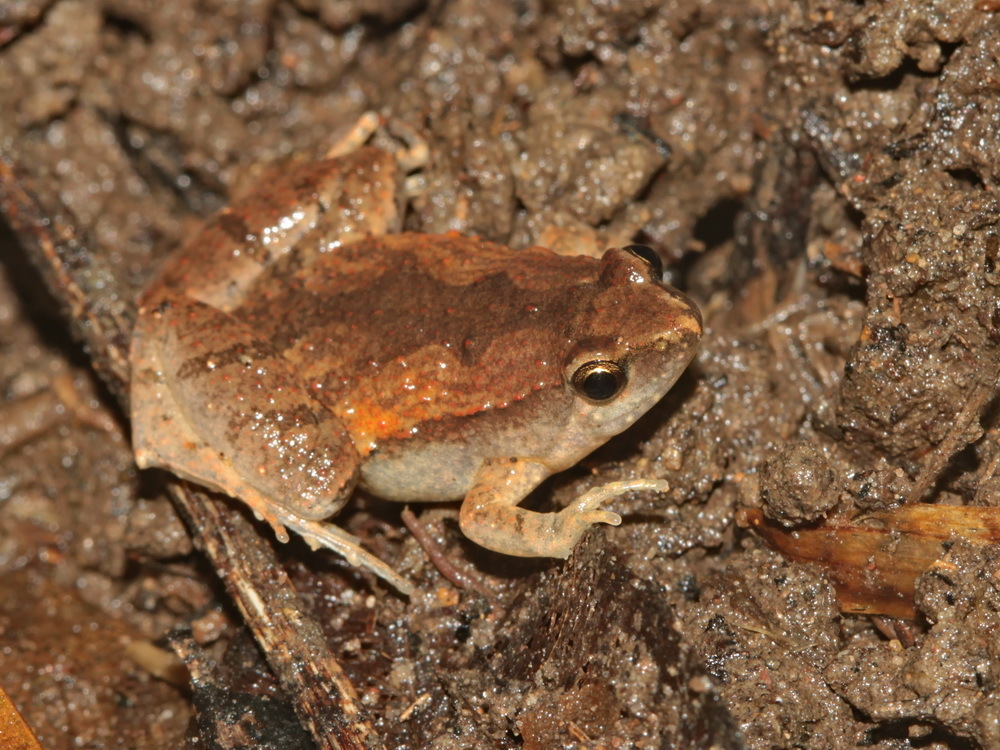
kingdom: Animalia
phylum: Chordata
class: Amphibia
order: Anura
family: Microhylidae
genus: Microhyla
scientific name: Microhyla mukhlesuri
